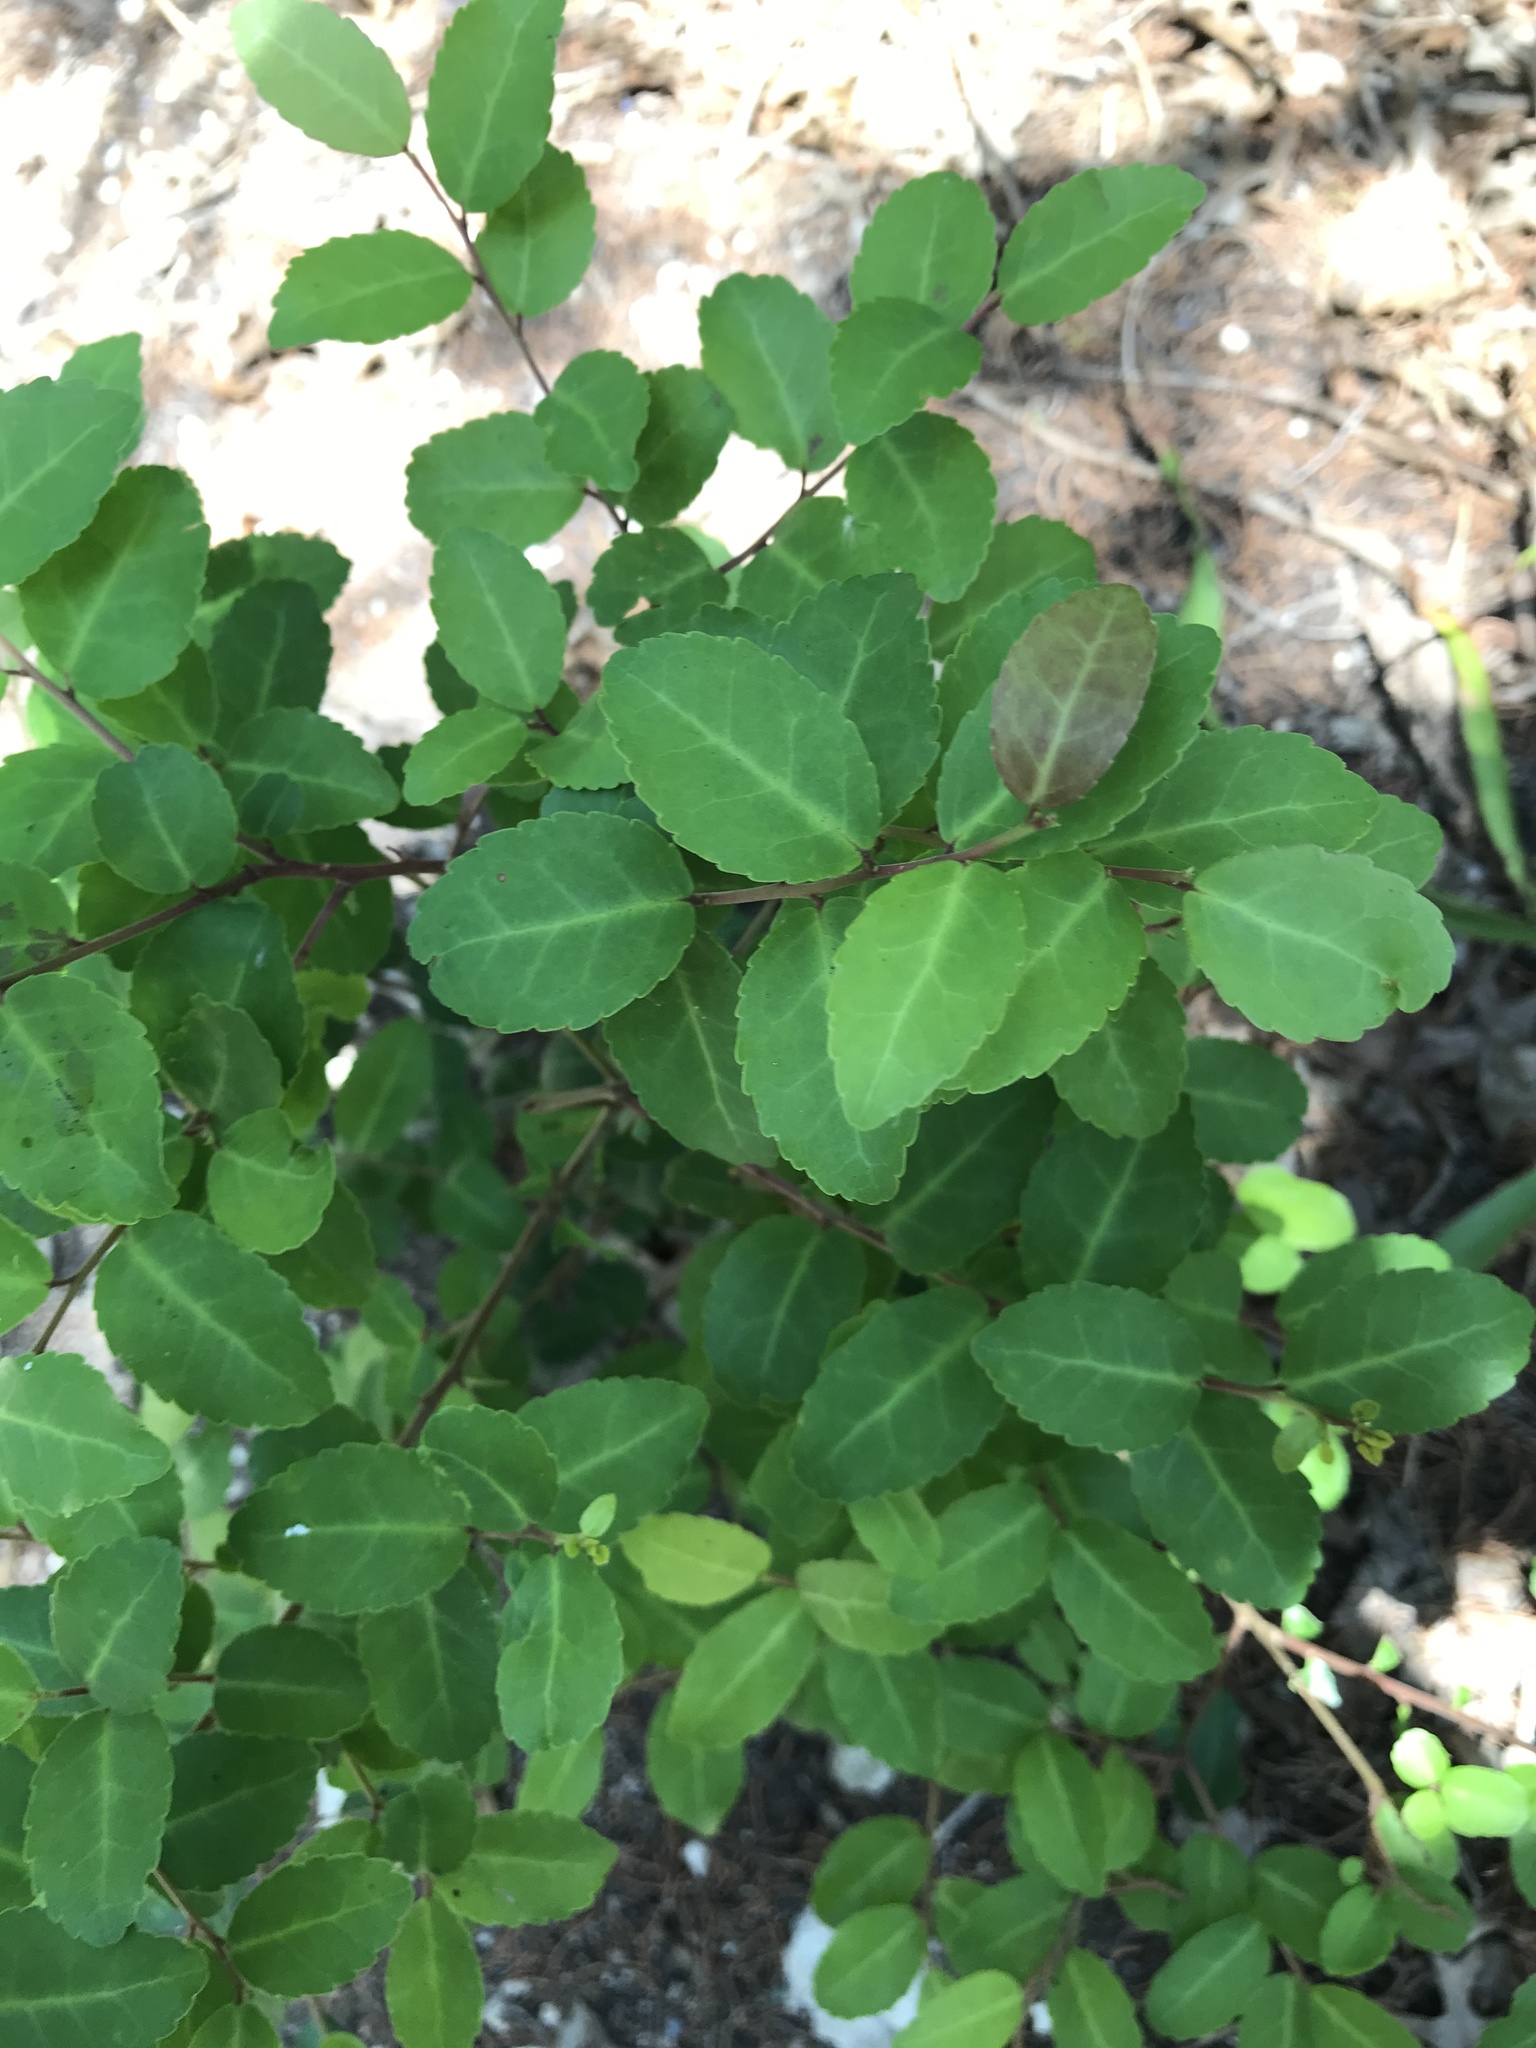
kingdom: Plantae
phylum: Tracheophyta
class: Magnoliopsida
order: Aquifoliales
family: Aquifoliaceae
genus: Ilex
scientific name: Ilex vomitoria
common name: Yaupon holly
